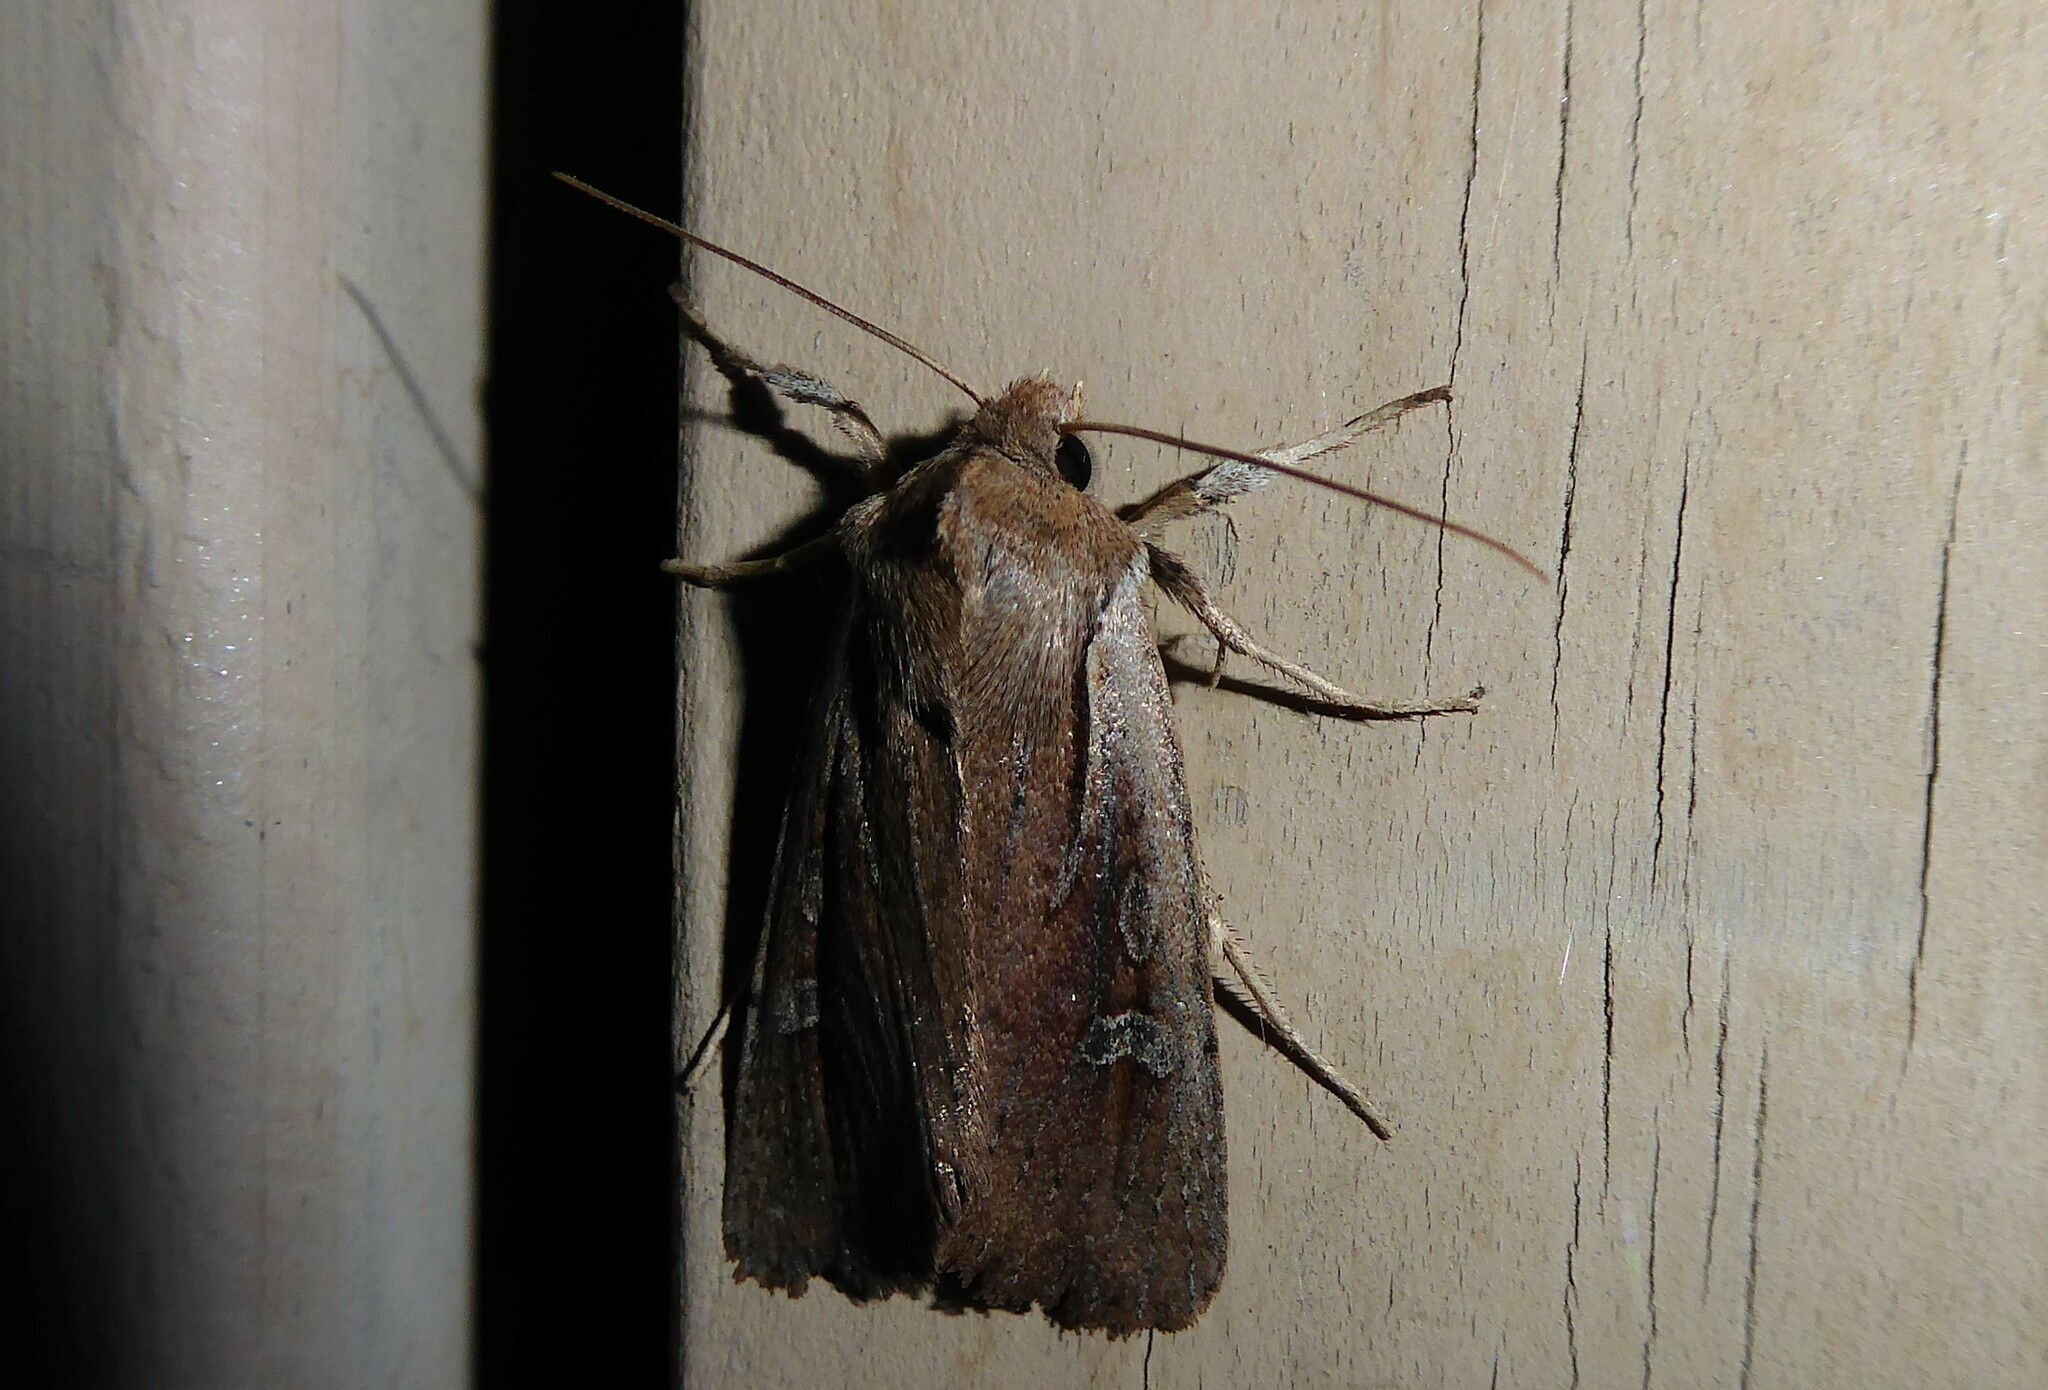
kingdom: Animalia
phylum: Arthropoda
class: Insecta
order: Lepidoptera
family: Noctuidae
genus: Ichneutica
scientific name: Ichneutica atristriga
